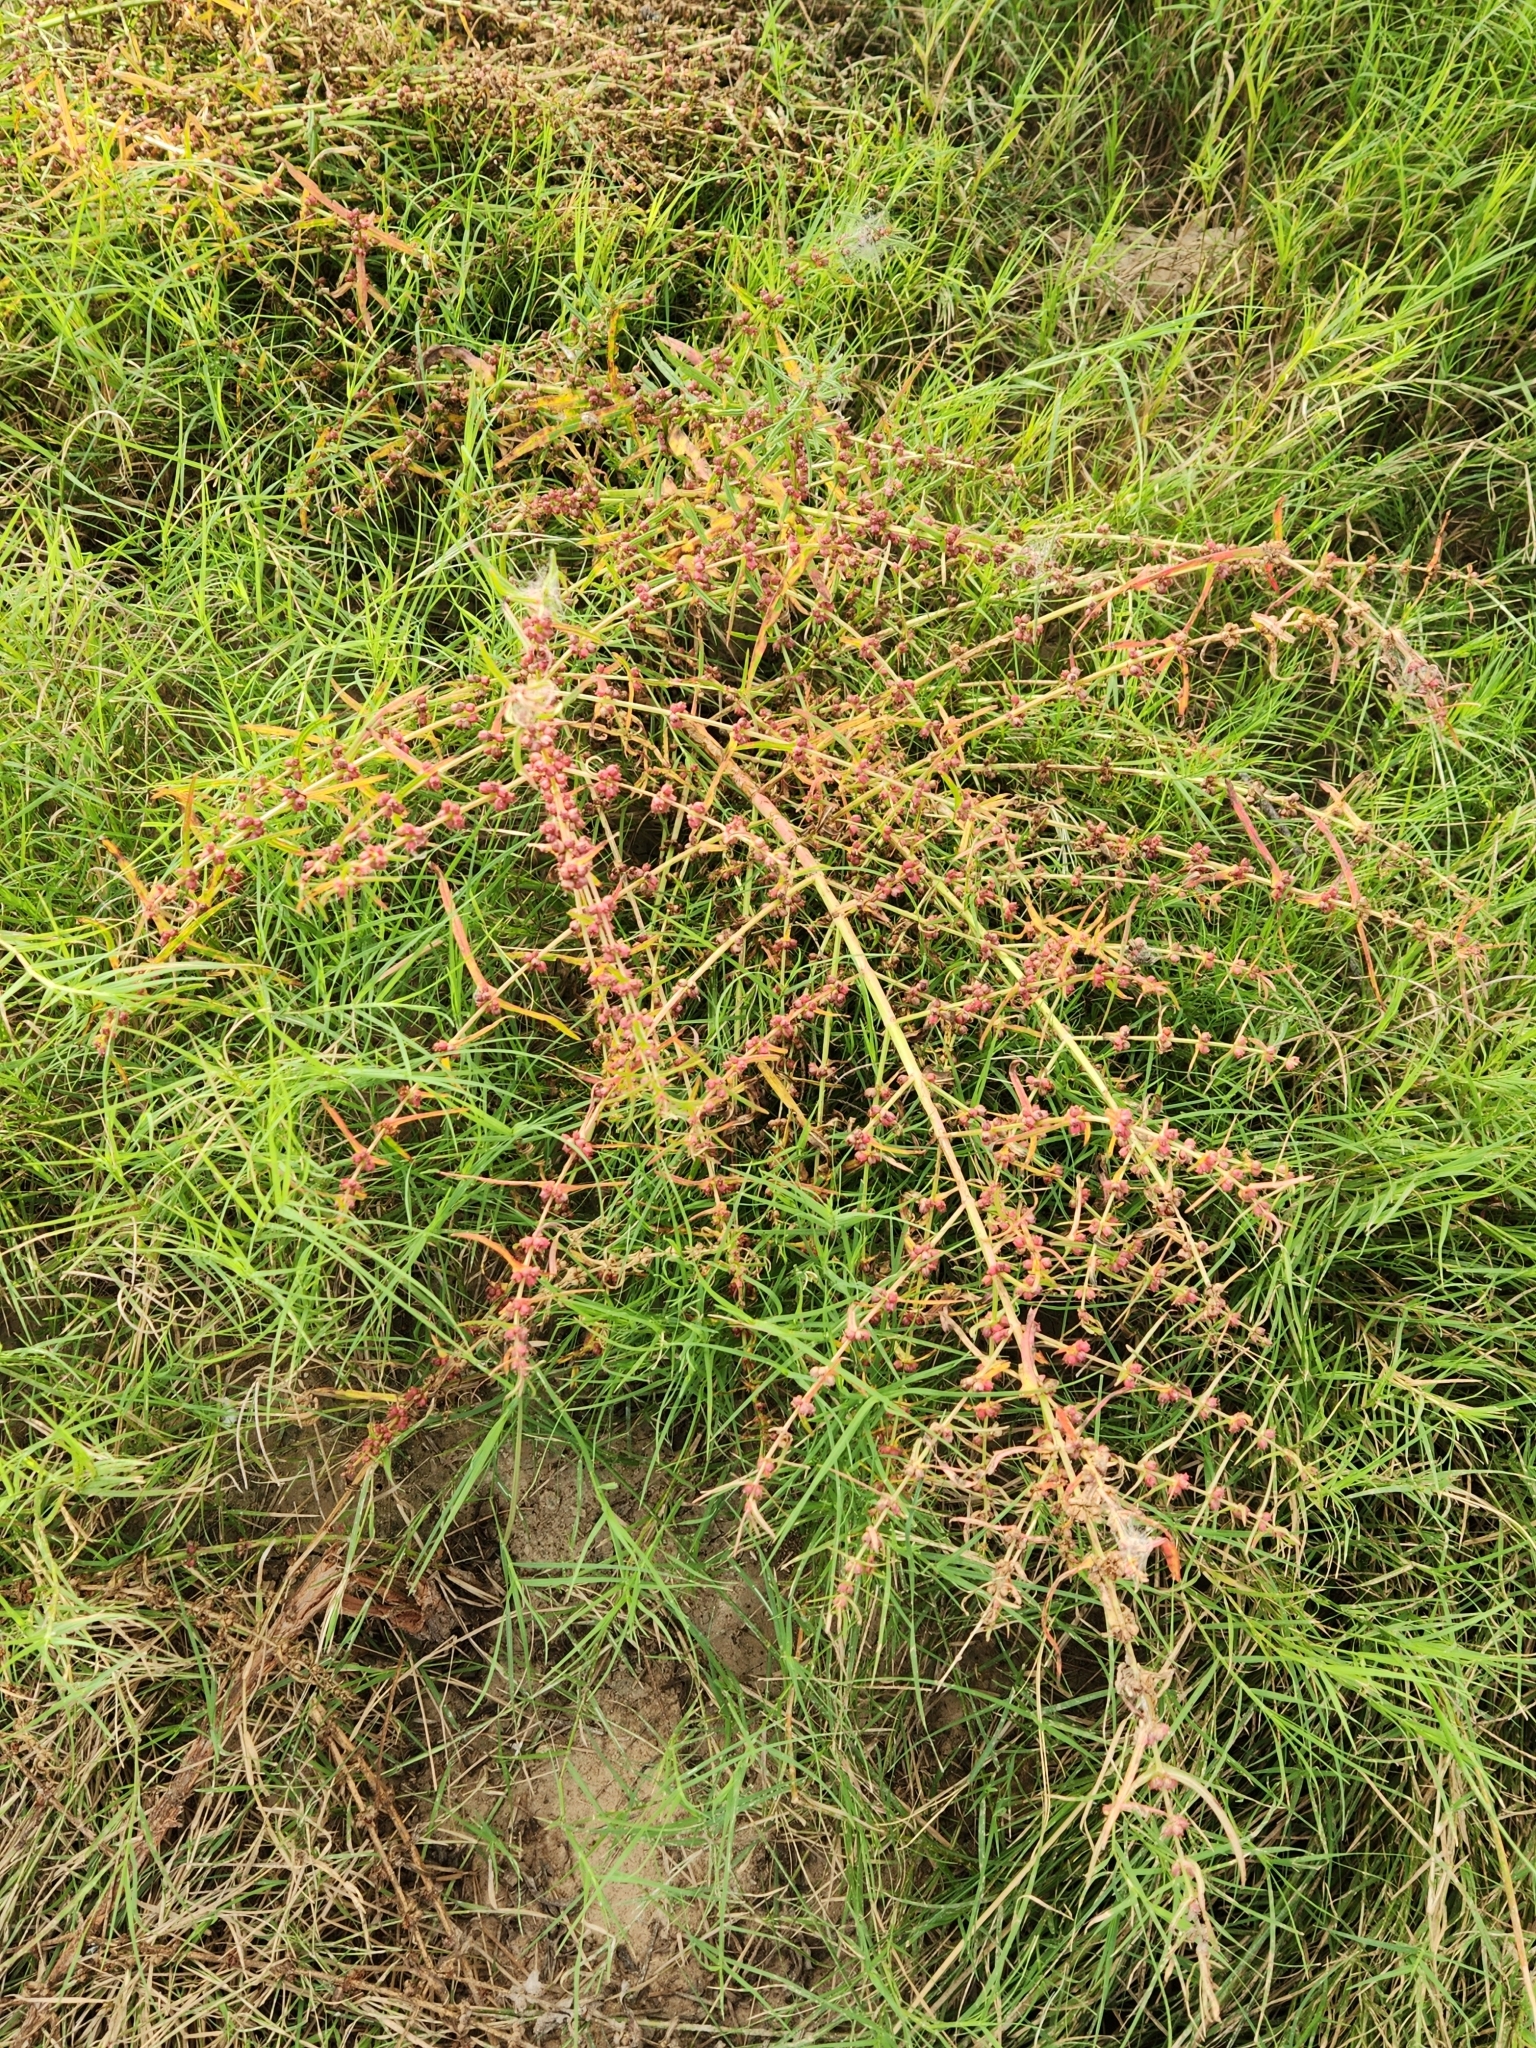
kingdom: Plantae
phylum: Tracheophyta
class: Magnoliopsida
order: Myrtales
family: Lythraceae
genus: Ammannia
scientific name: Ammannia coccinea
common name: Valley redstem
